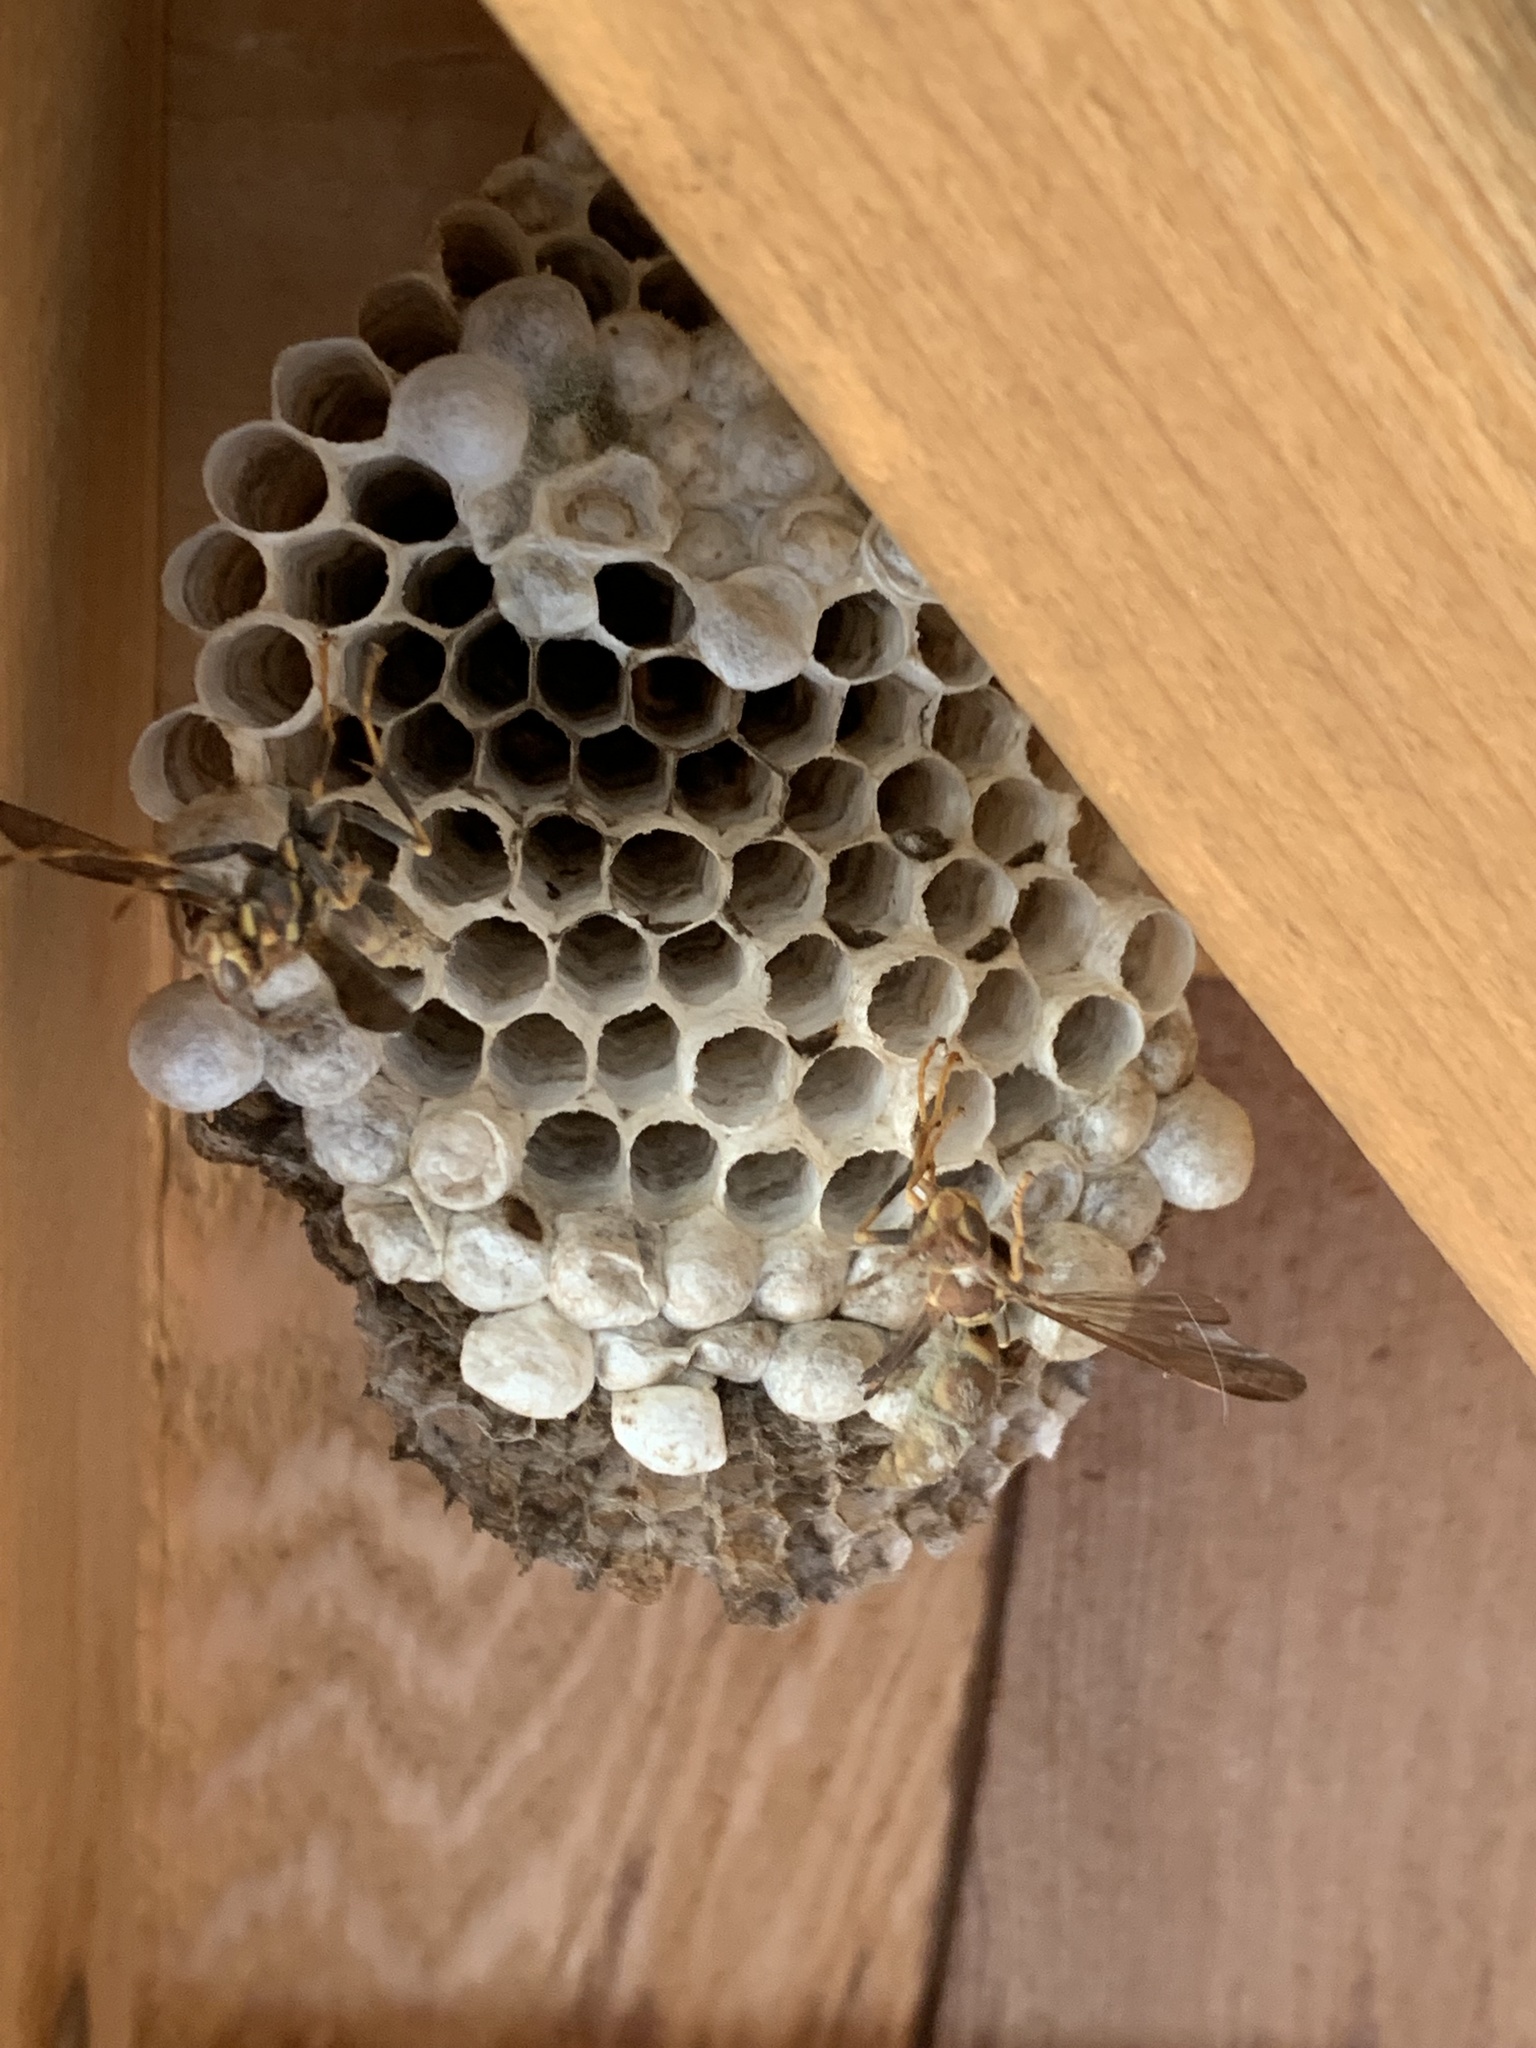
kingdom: Animalia
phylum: Arthropoda
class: Insecta
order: Hymenoptera
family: Eumenidae
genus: Polistes
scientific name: Polistes exclamans
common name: Paper wasp
